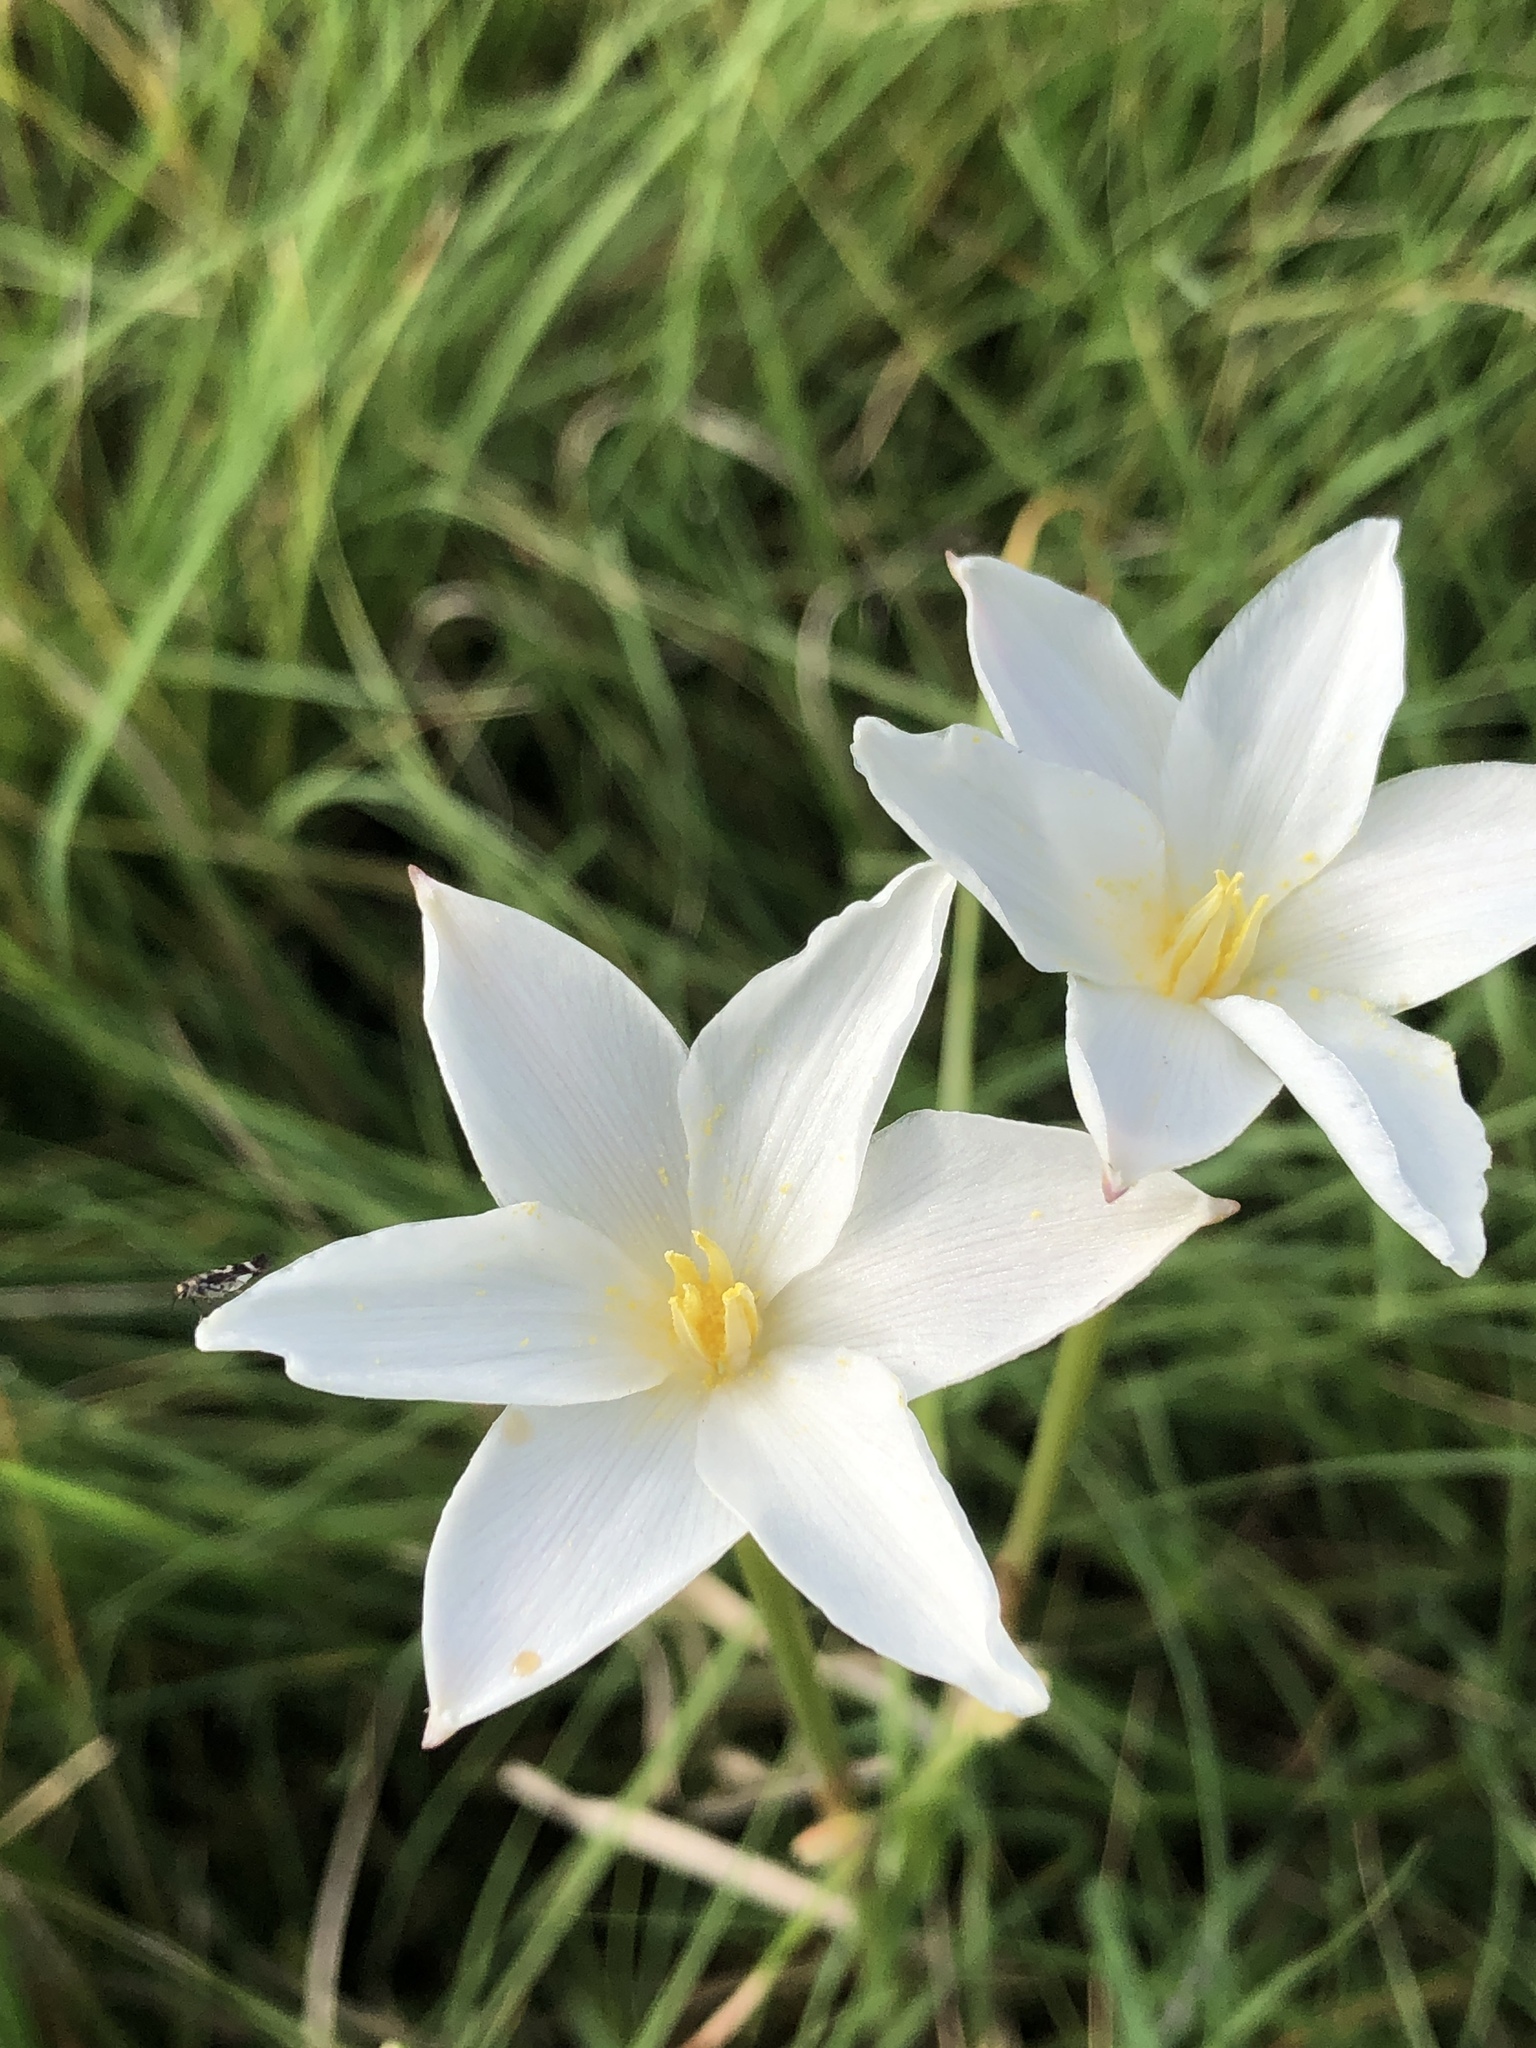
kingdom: Plantae
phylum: Tracheophyta
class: Liliopsida
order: Asparagales
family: Amaryllidaceae
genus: Zephyranthes
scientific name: Zephyranthes chlorosolen
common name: Evening rain-lily
